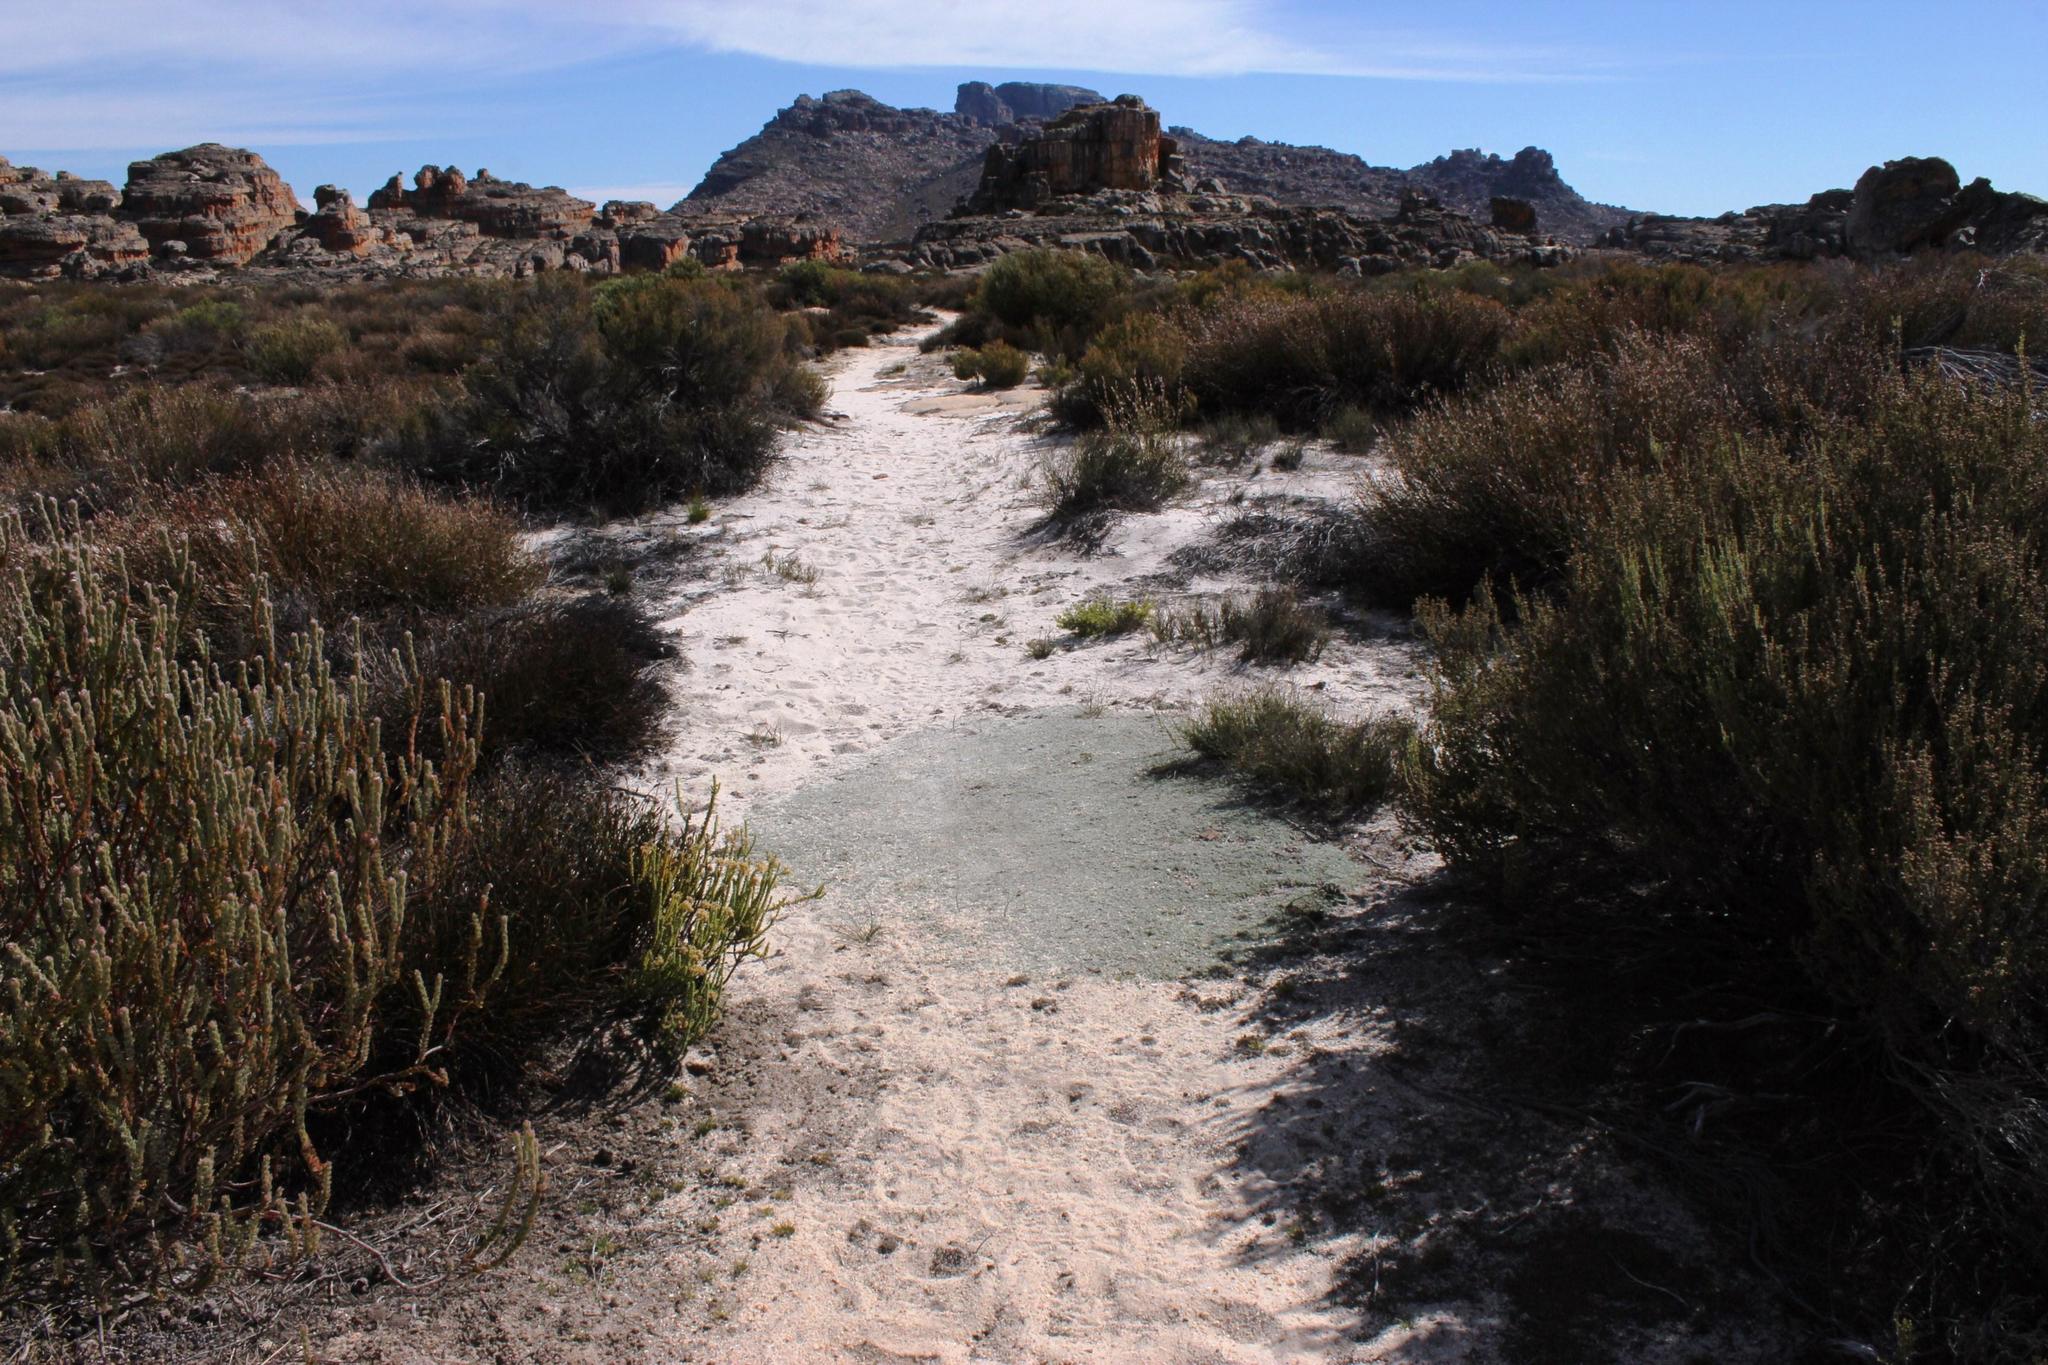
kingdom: Plantae
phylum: Tracheophyta
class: Magnoliopsida
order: Fabales
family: Fabaceae
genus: Aspalathus
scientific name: Aspalathus bodkinii
